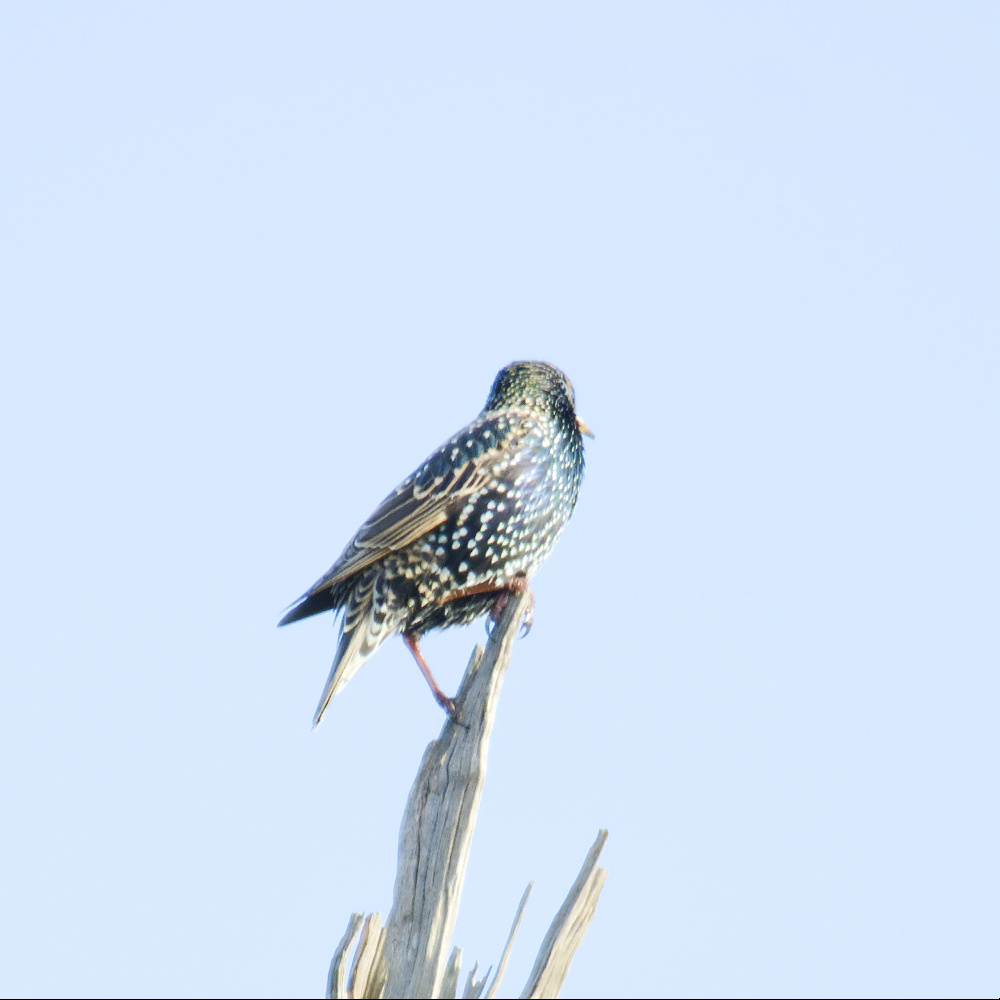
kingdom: Animalia
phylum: Chordata
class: Aves
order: Passeriformes
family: Sturnidae
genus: Sturnus
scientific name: Sturnus vulgaris
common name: Common starling
